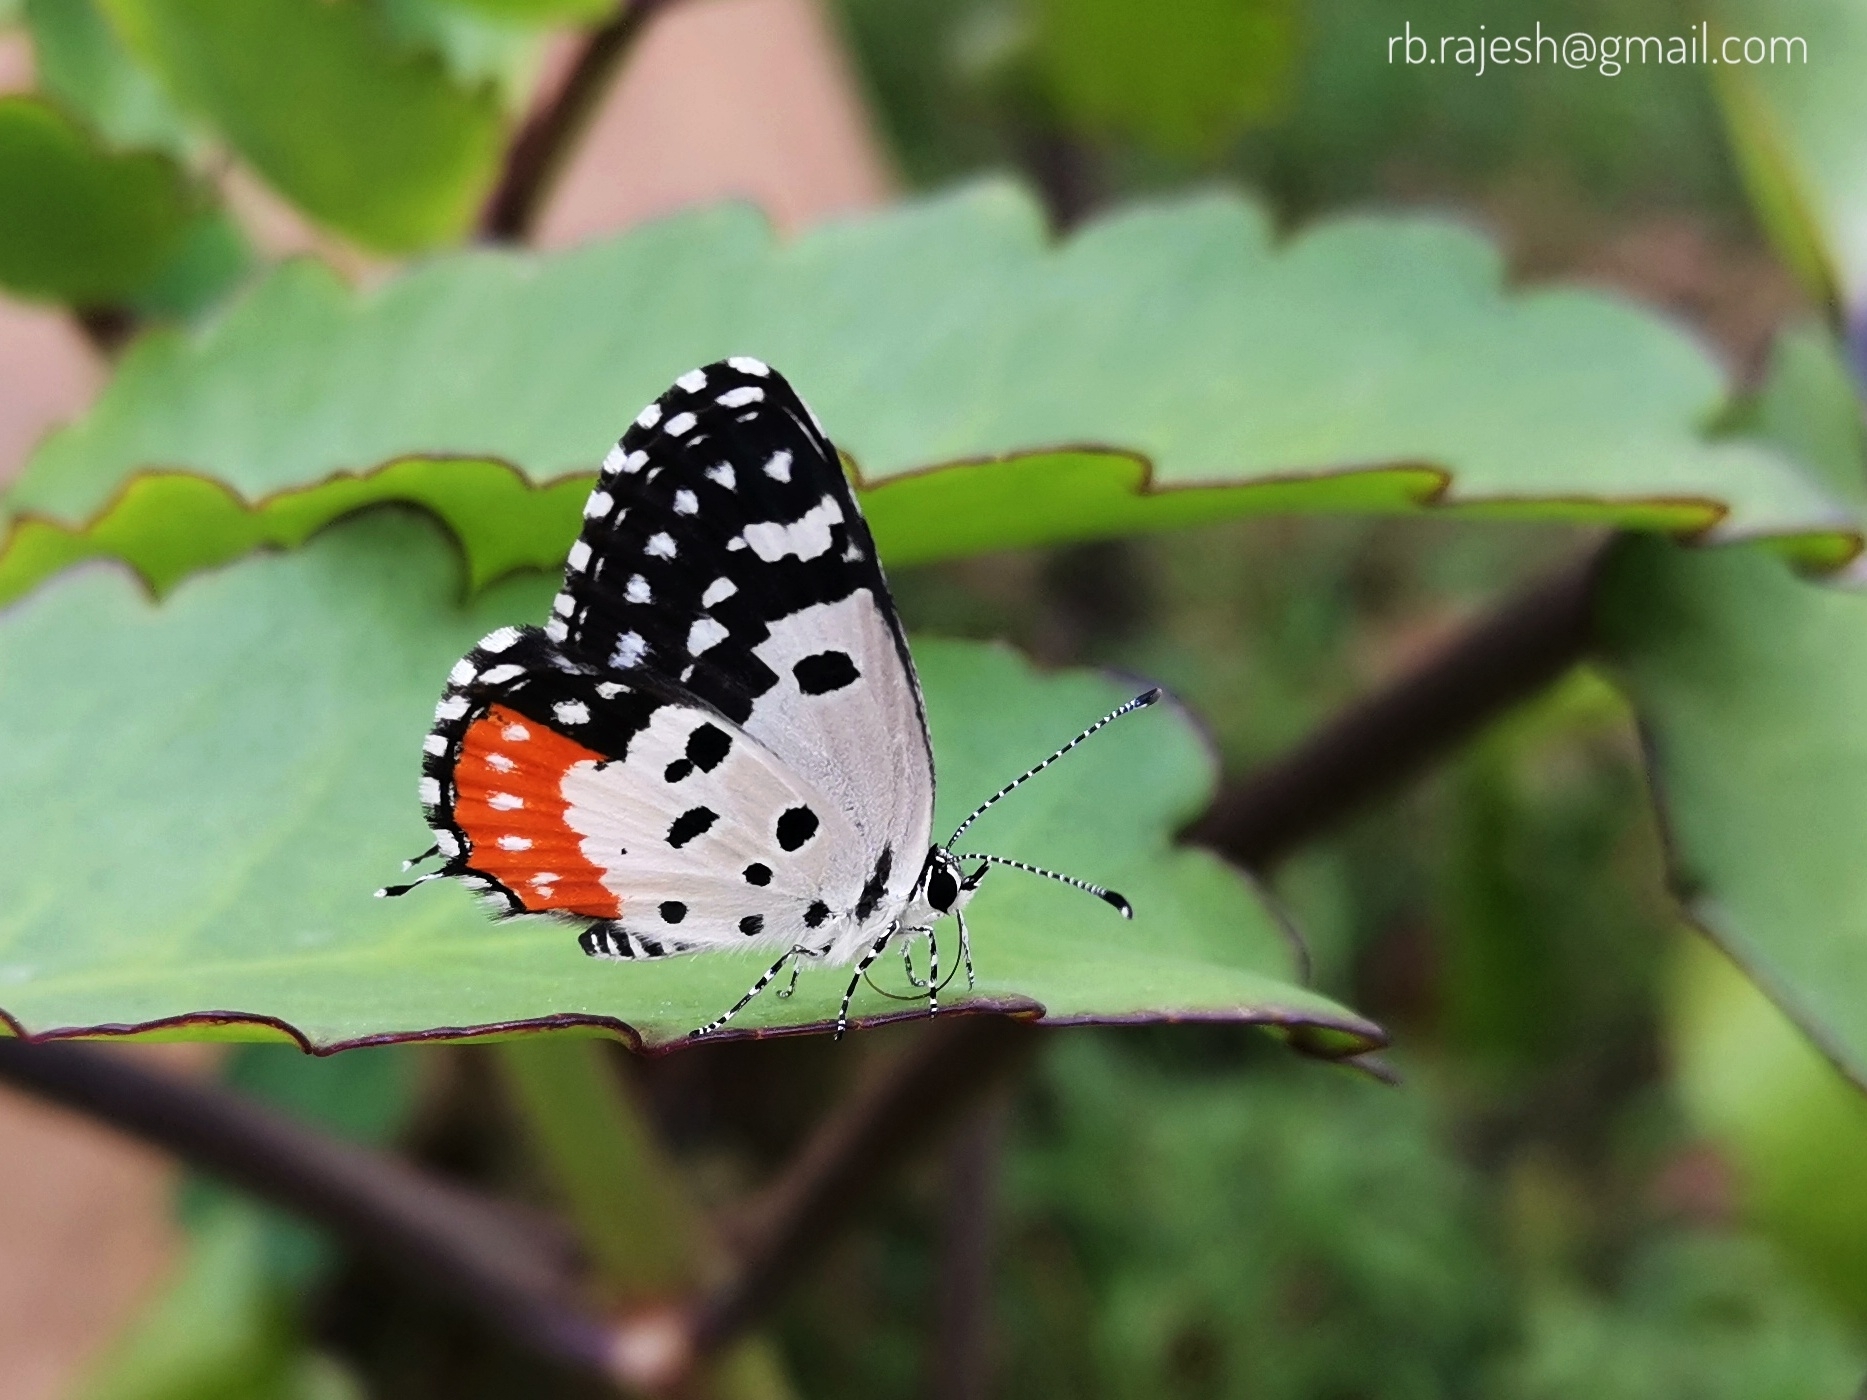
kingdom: Animalia
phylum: Arthropoda
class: Insecta
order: Lepidoptera
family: Lycaenidae
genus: Talicada
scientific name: Talicada nyseus
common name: Red pierrot
